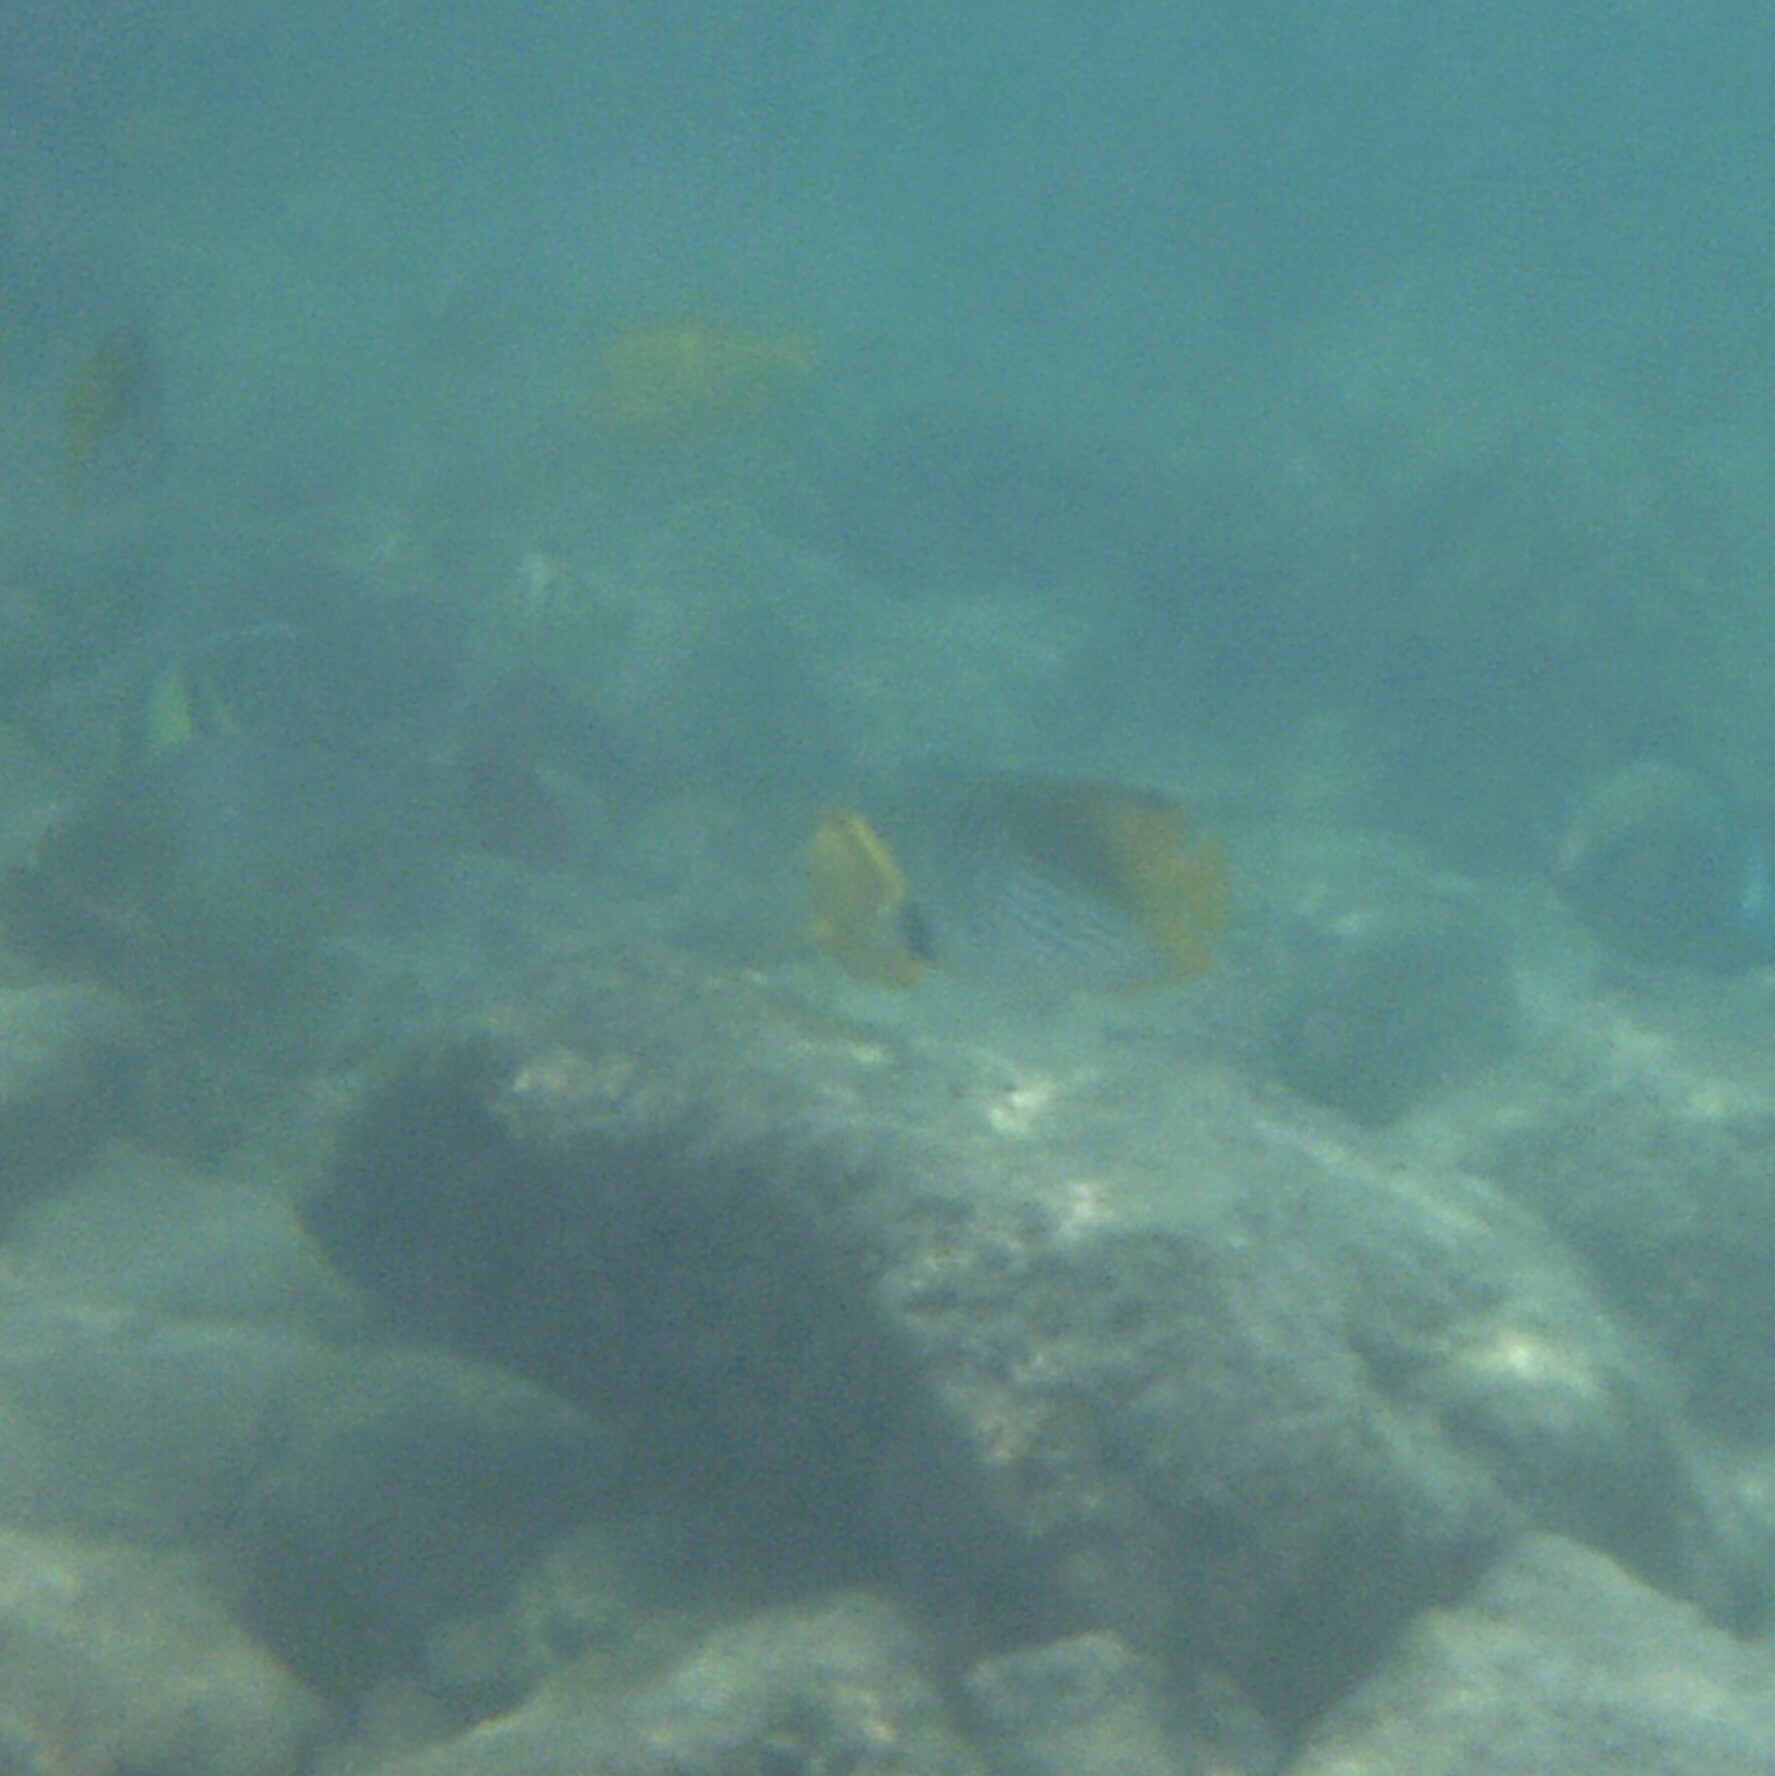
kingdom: Animalia
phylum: Chordata
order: Perciformes
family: Chaetodontidae
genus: Chaetodon
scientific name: Chaetodon auriga
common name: Threadfin butterflyfish
